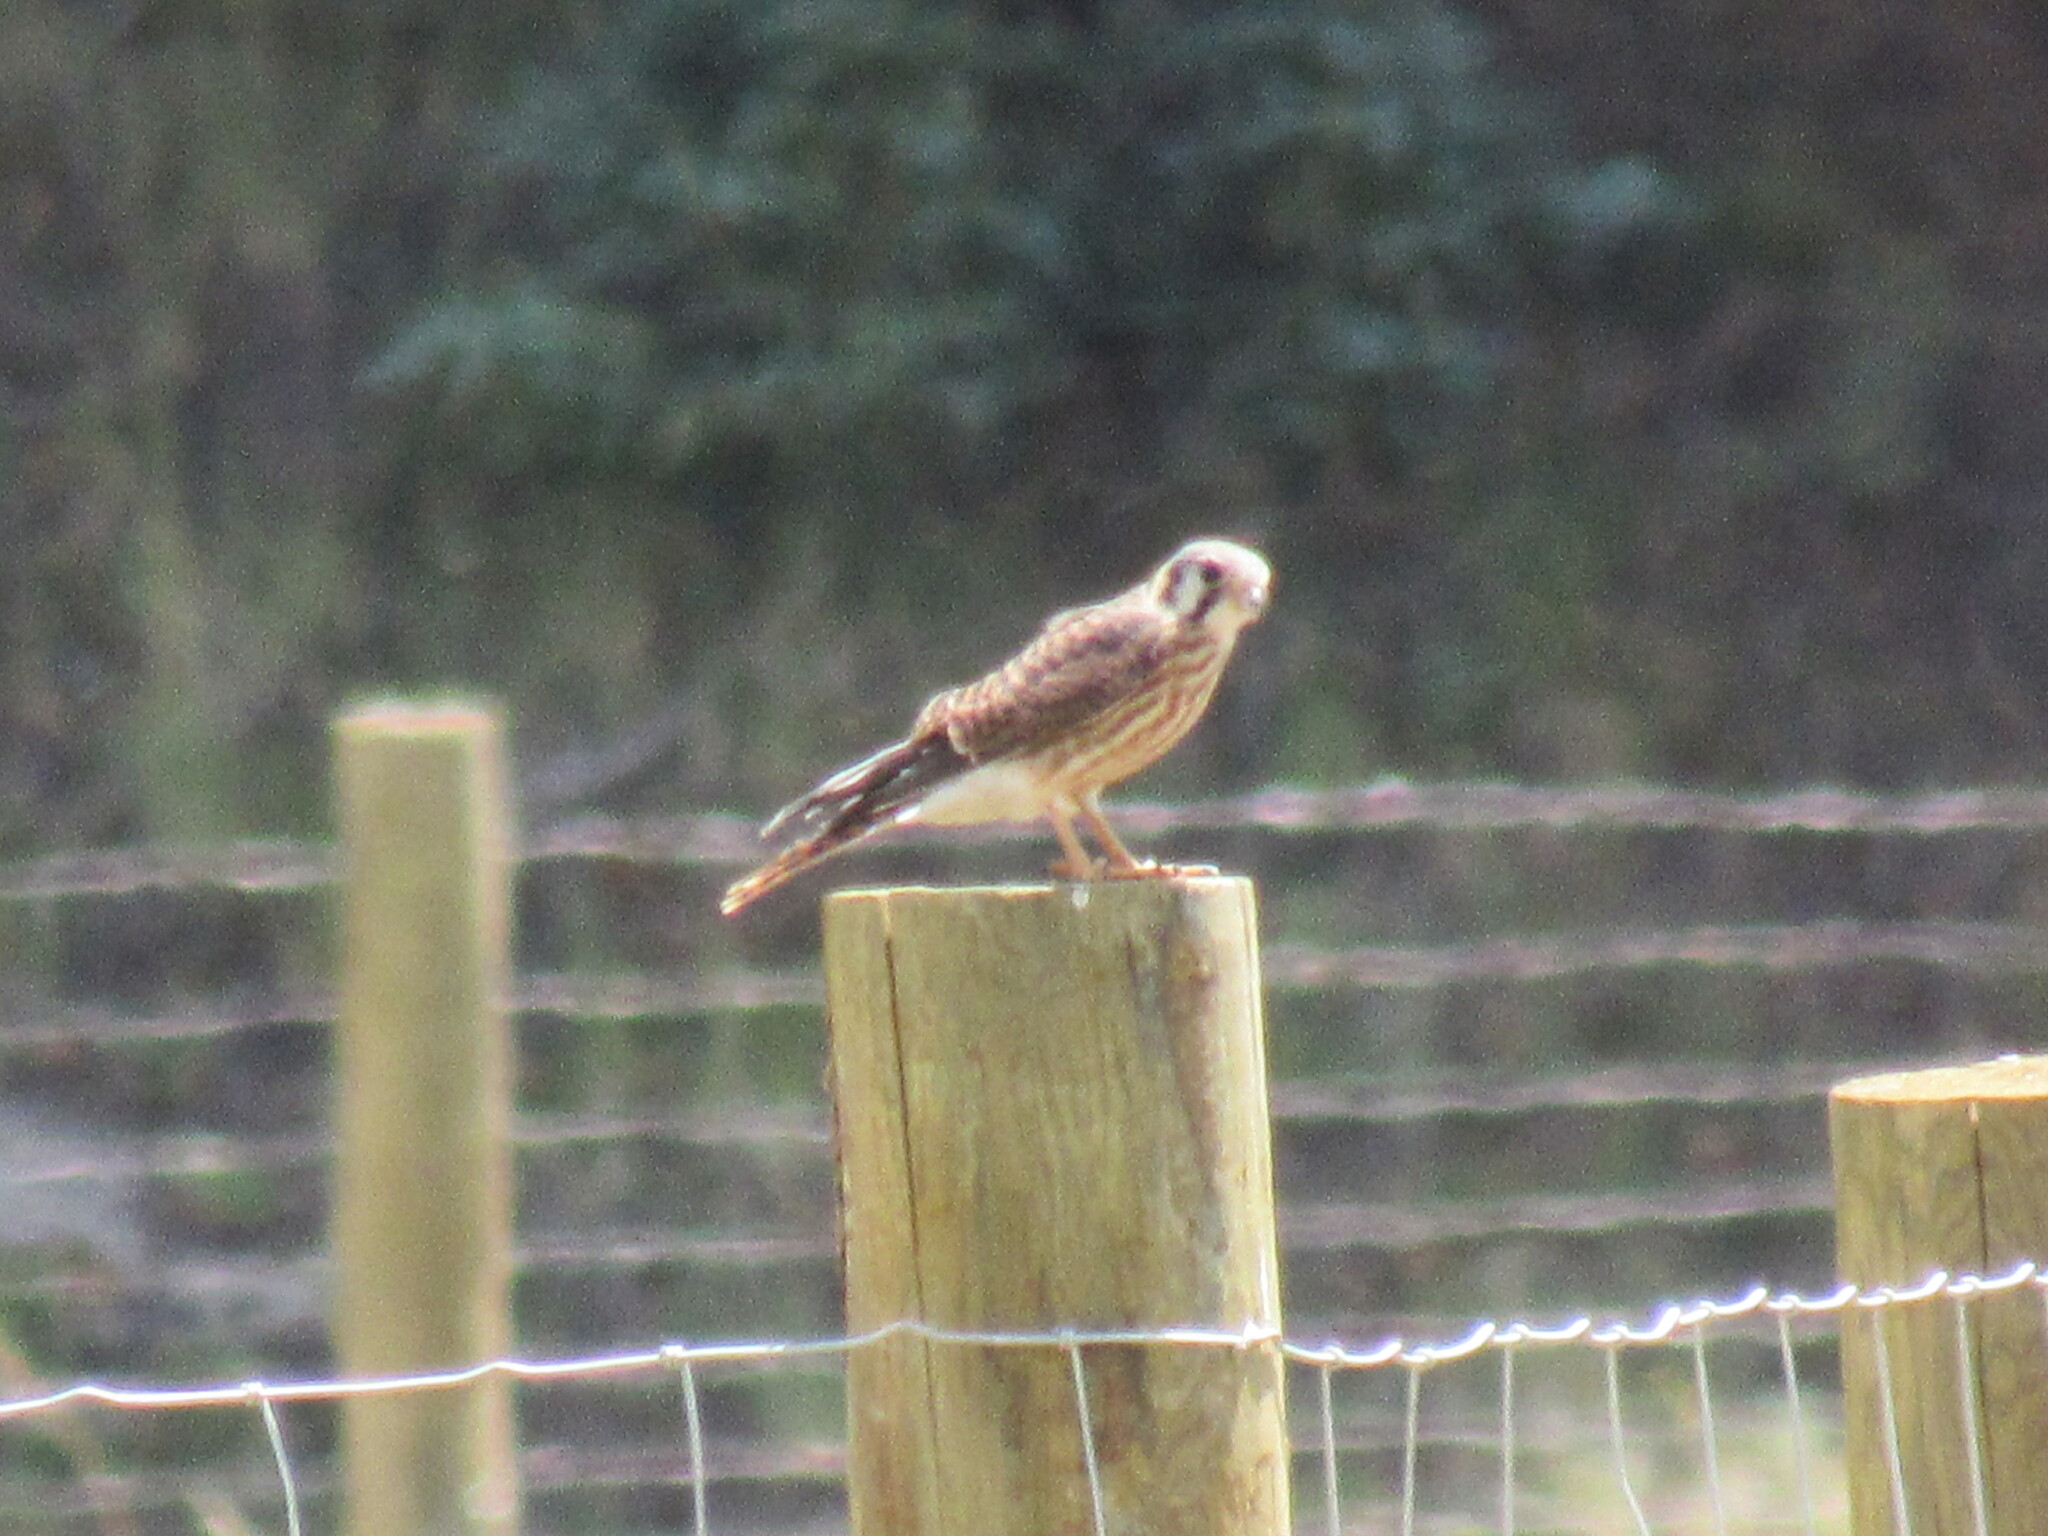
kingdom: Animalia
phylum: Chordata
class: Aves
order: Falconiformes
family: Falconidae
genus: Falco
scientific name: Falco sparverius
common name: American kestrel
